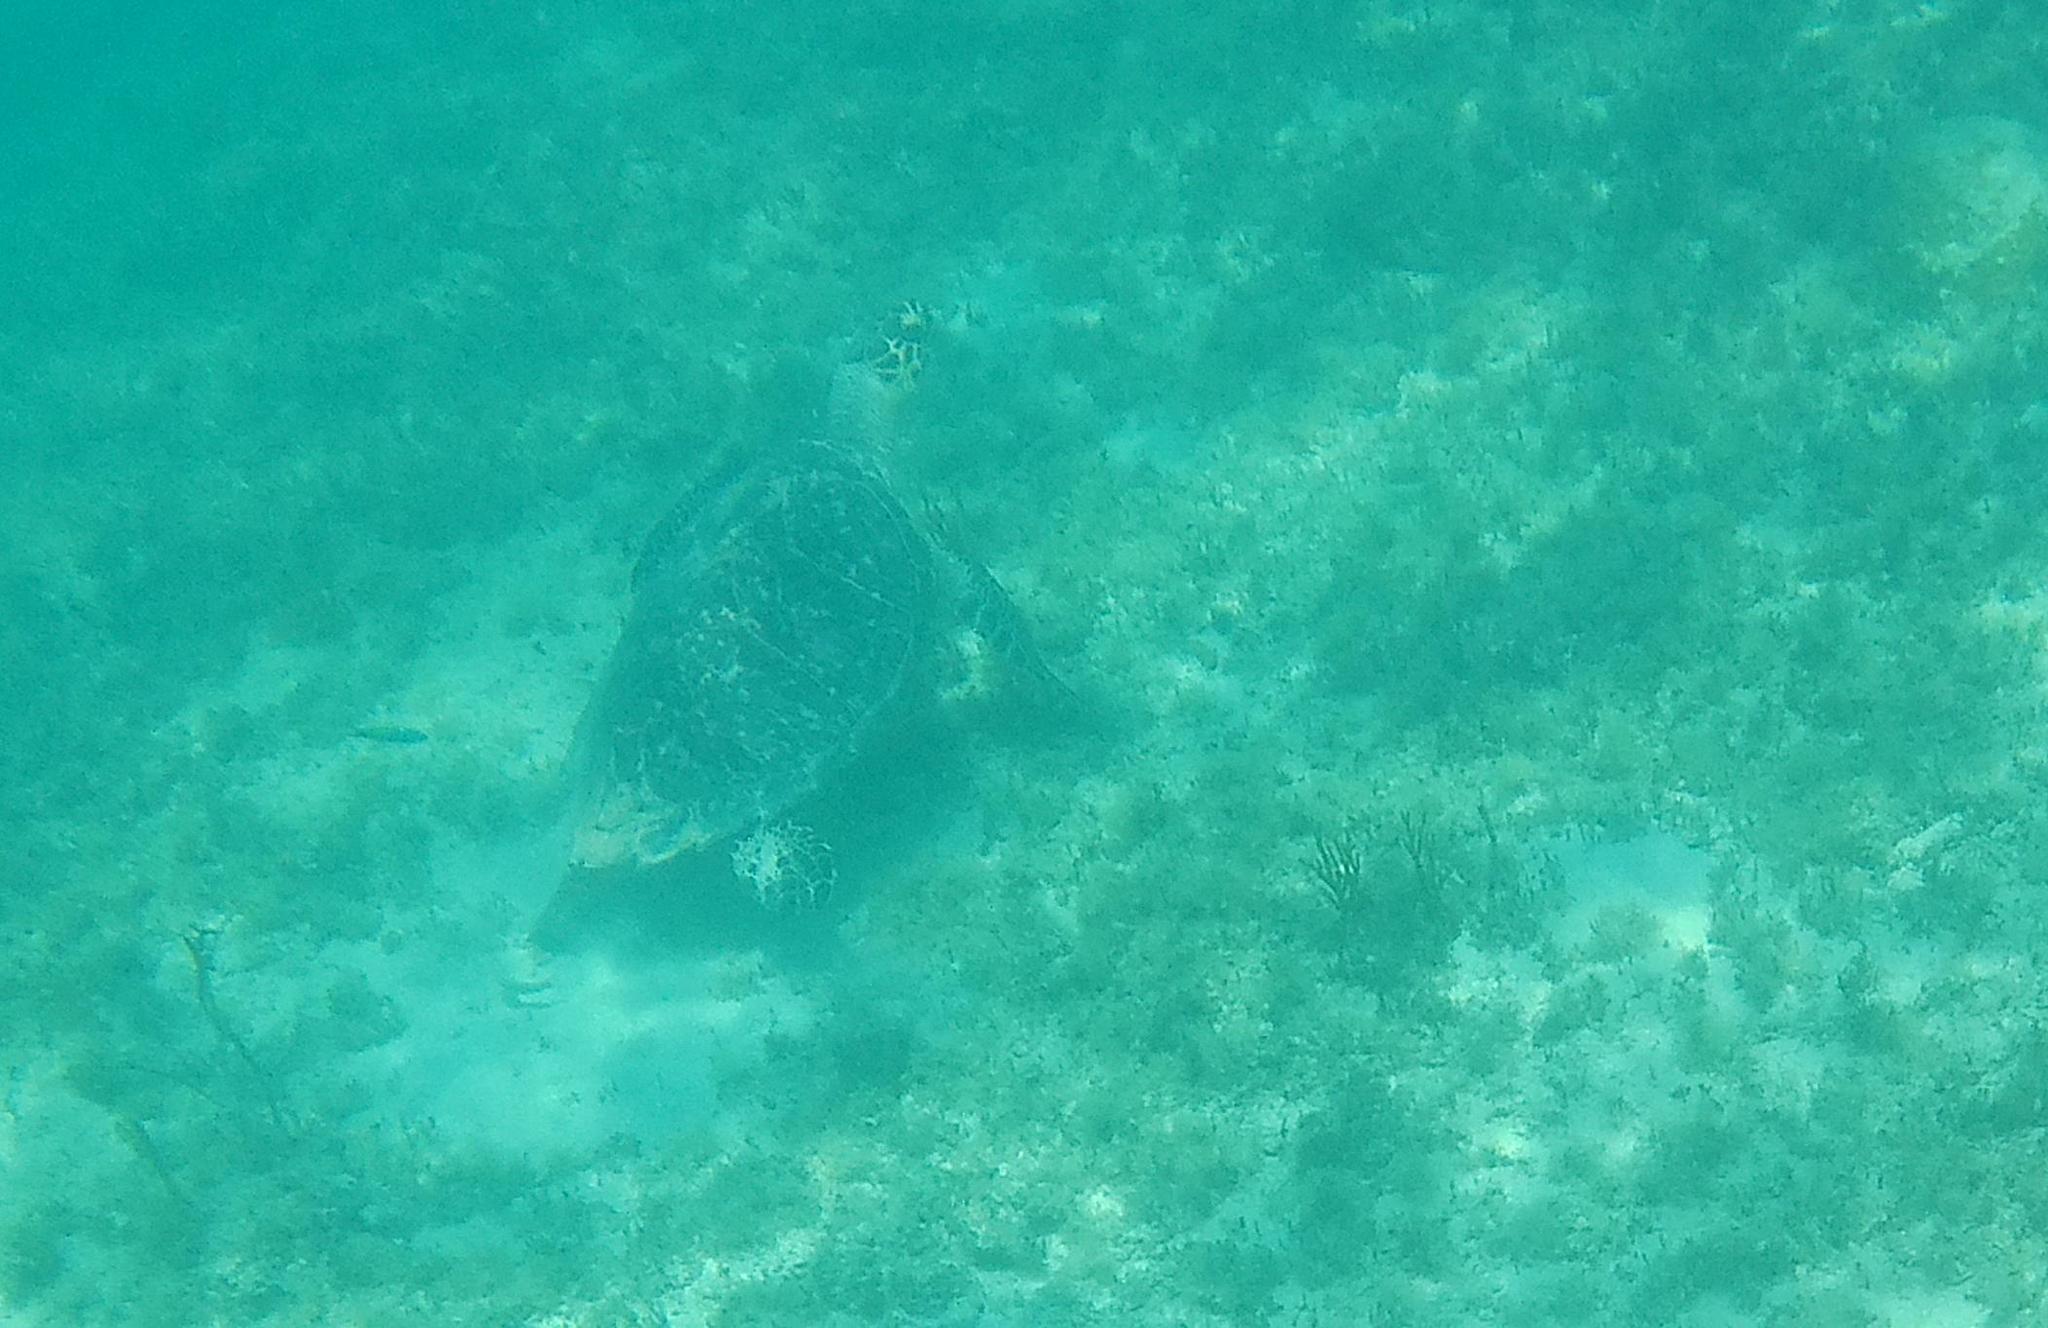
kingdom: Animalia
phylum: Chordata
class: Testudines
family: Cheloniidae
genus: Eretmochelys
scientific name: Eretmochelys imbricata
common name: Hawksbill turtle
